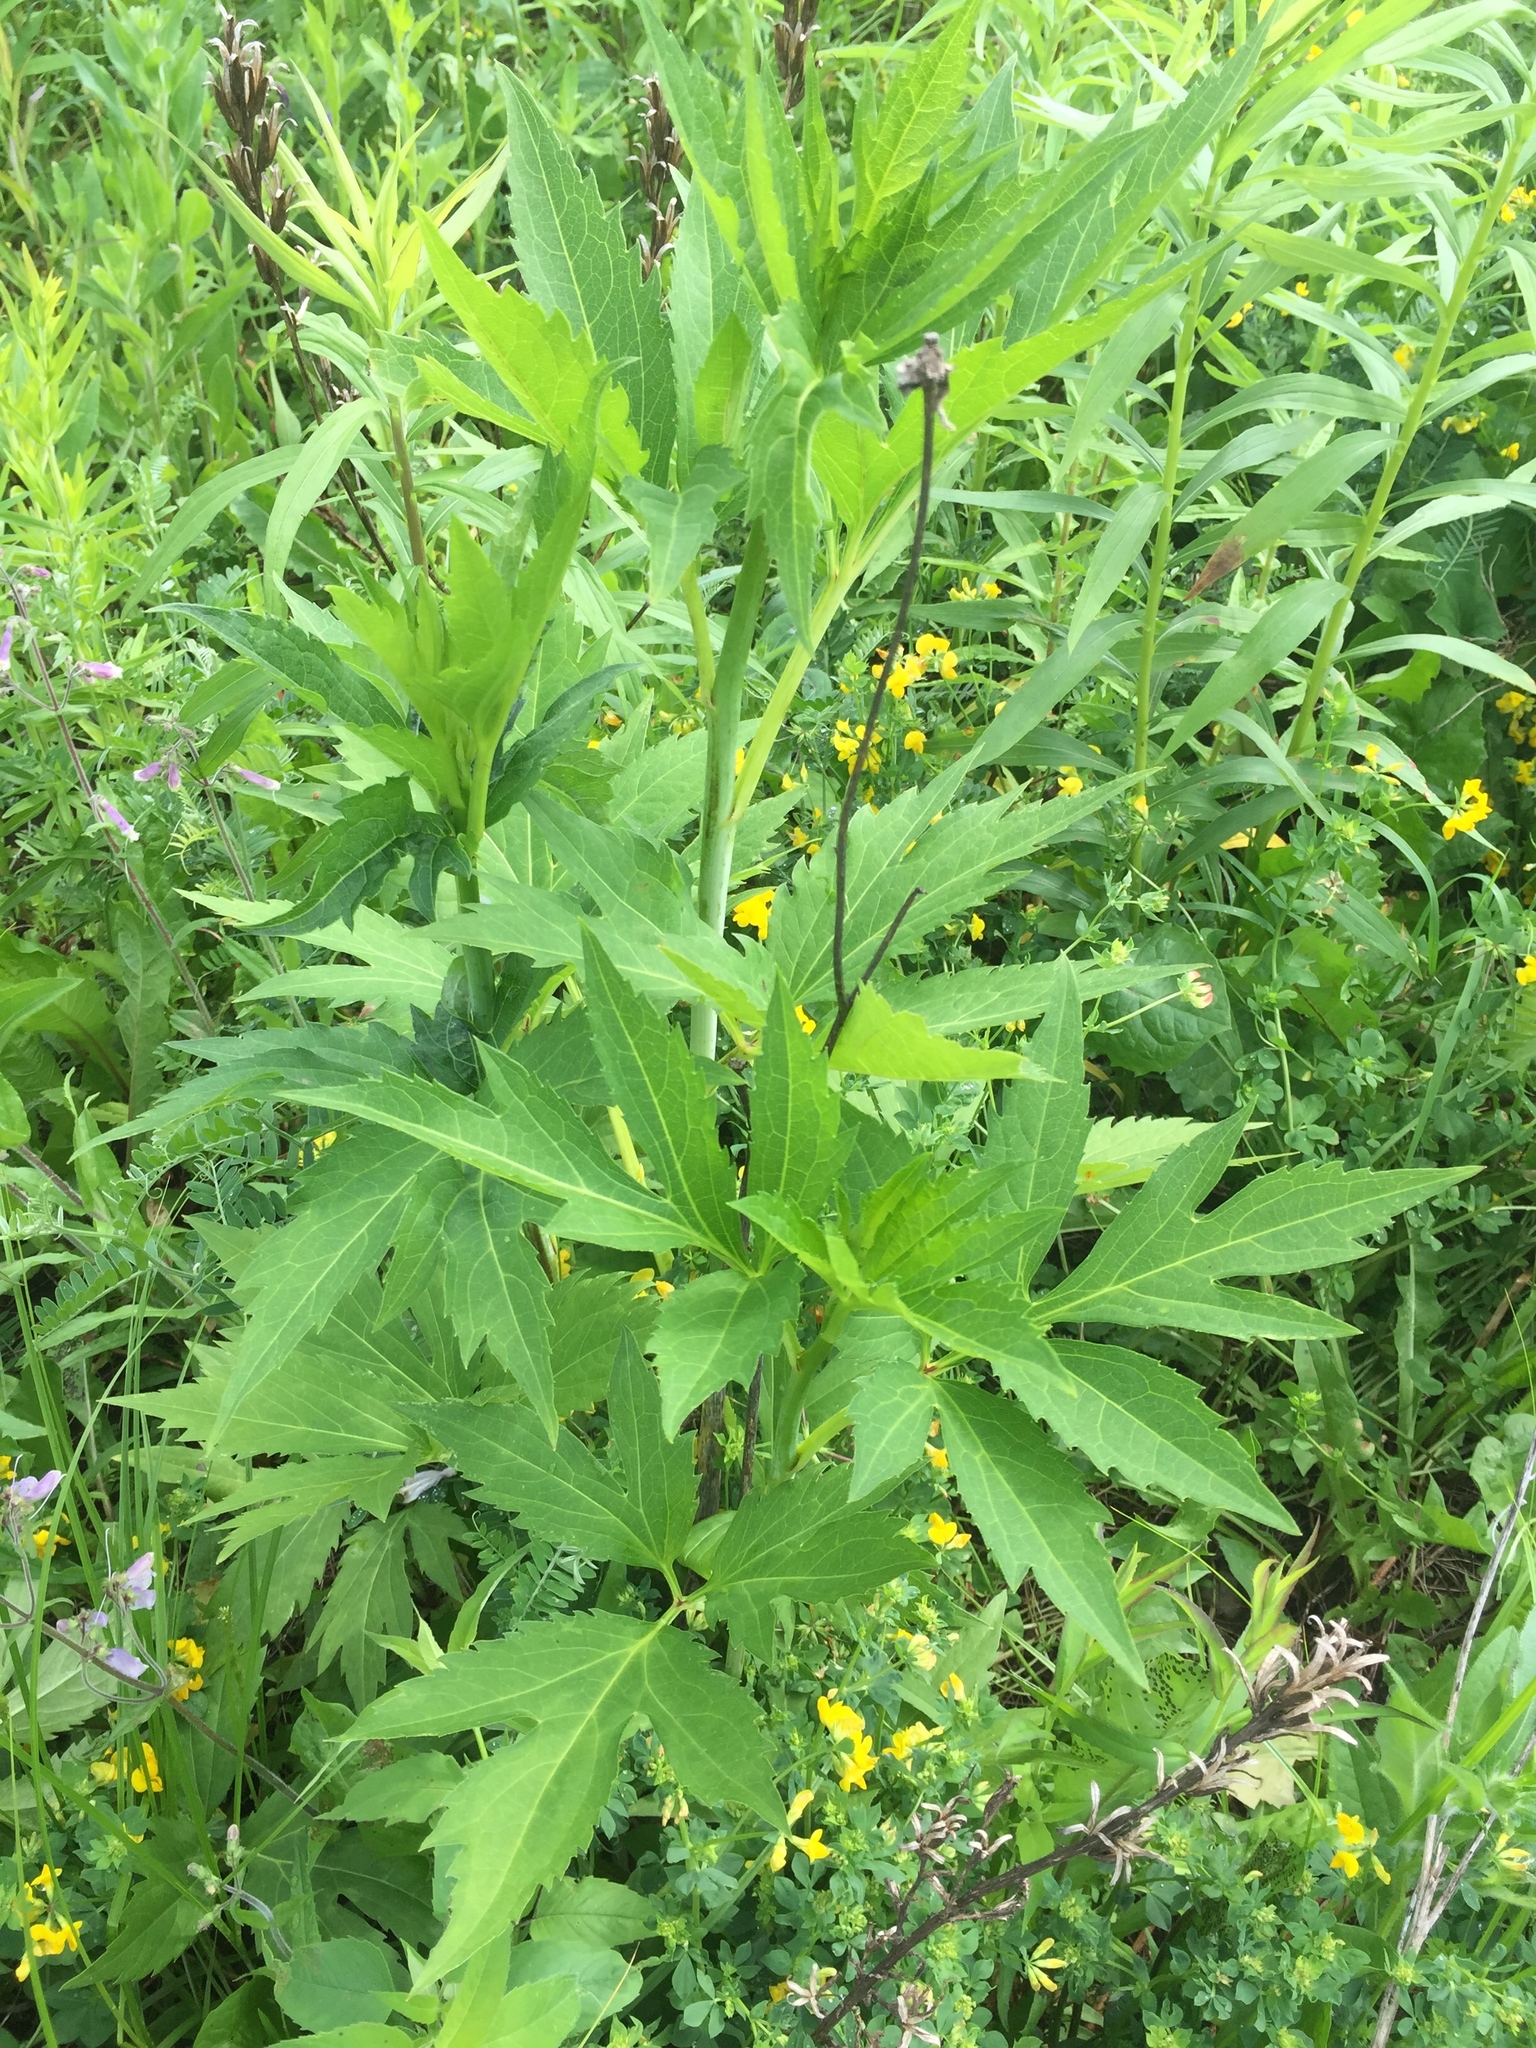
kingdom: Plantae
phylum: Tracheophyta
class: Magnoliopsida
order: Asterales
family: Asteraceae
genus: Rudbeckia
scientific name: Rudbeckia laciniata
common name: Coneflower
